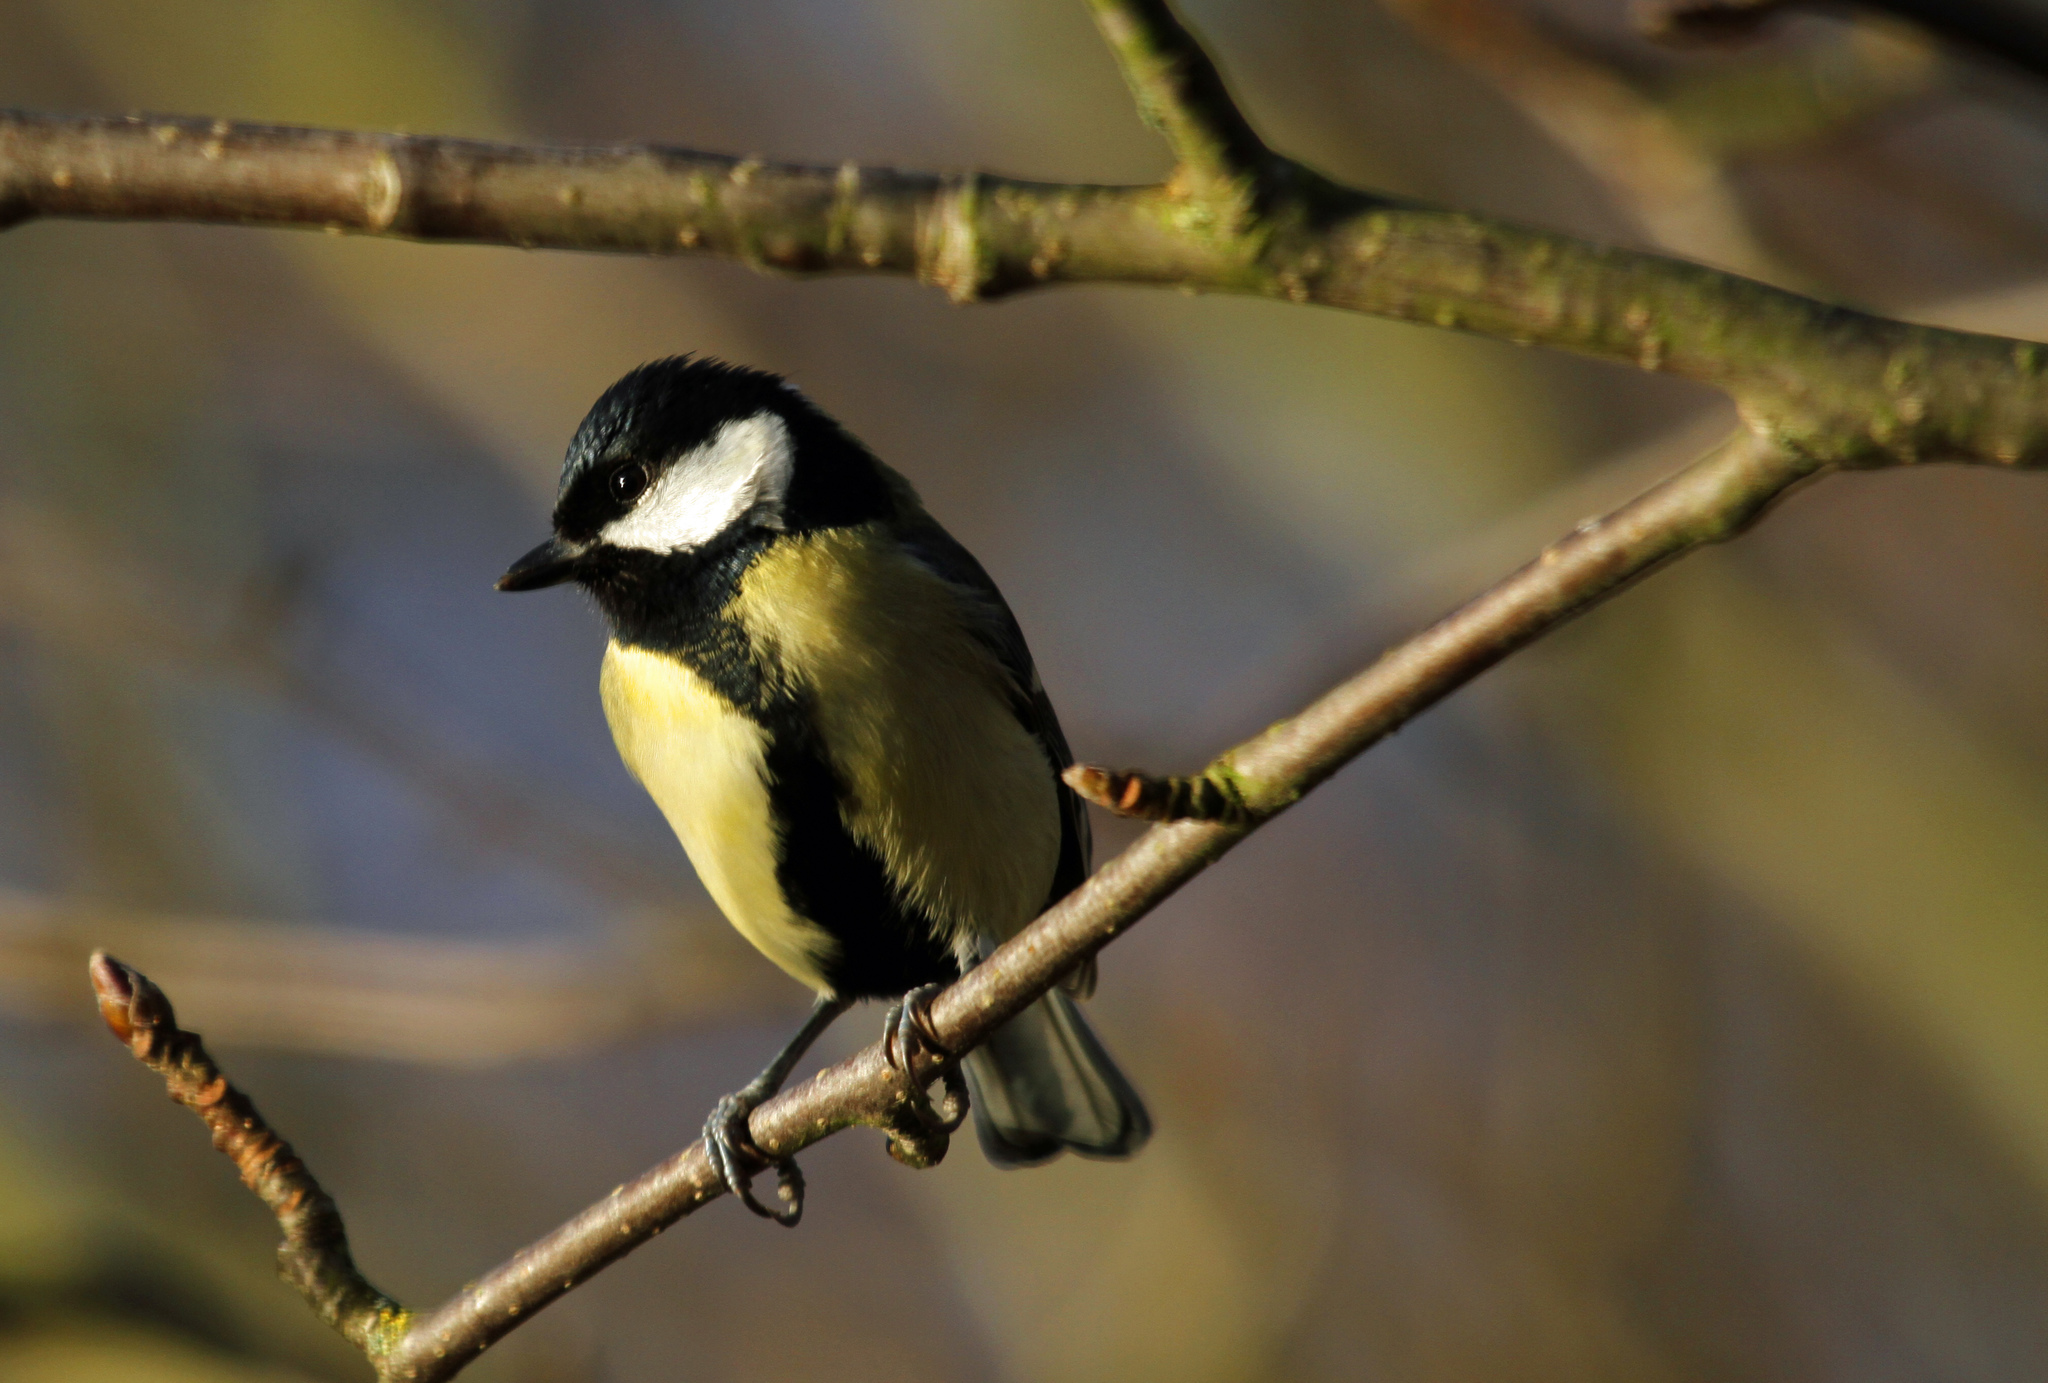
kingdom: Animalia
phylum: Chordata
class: Aves
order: Passeriformes
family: Paridae
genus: Parus
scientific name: Parus major
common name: Great tit
